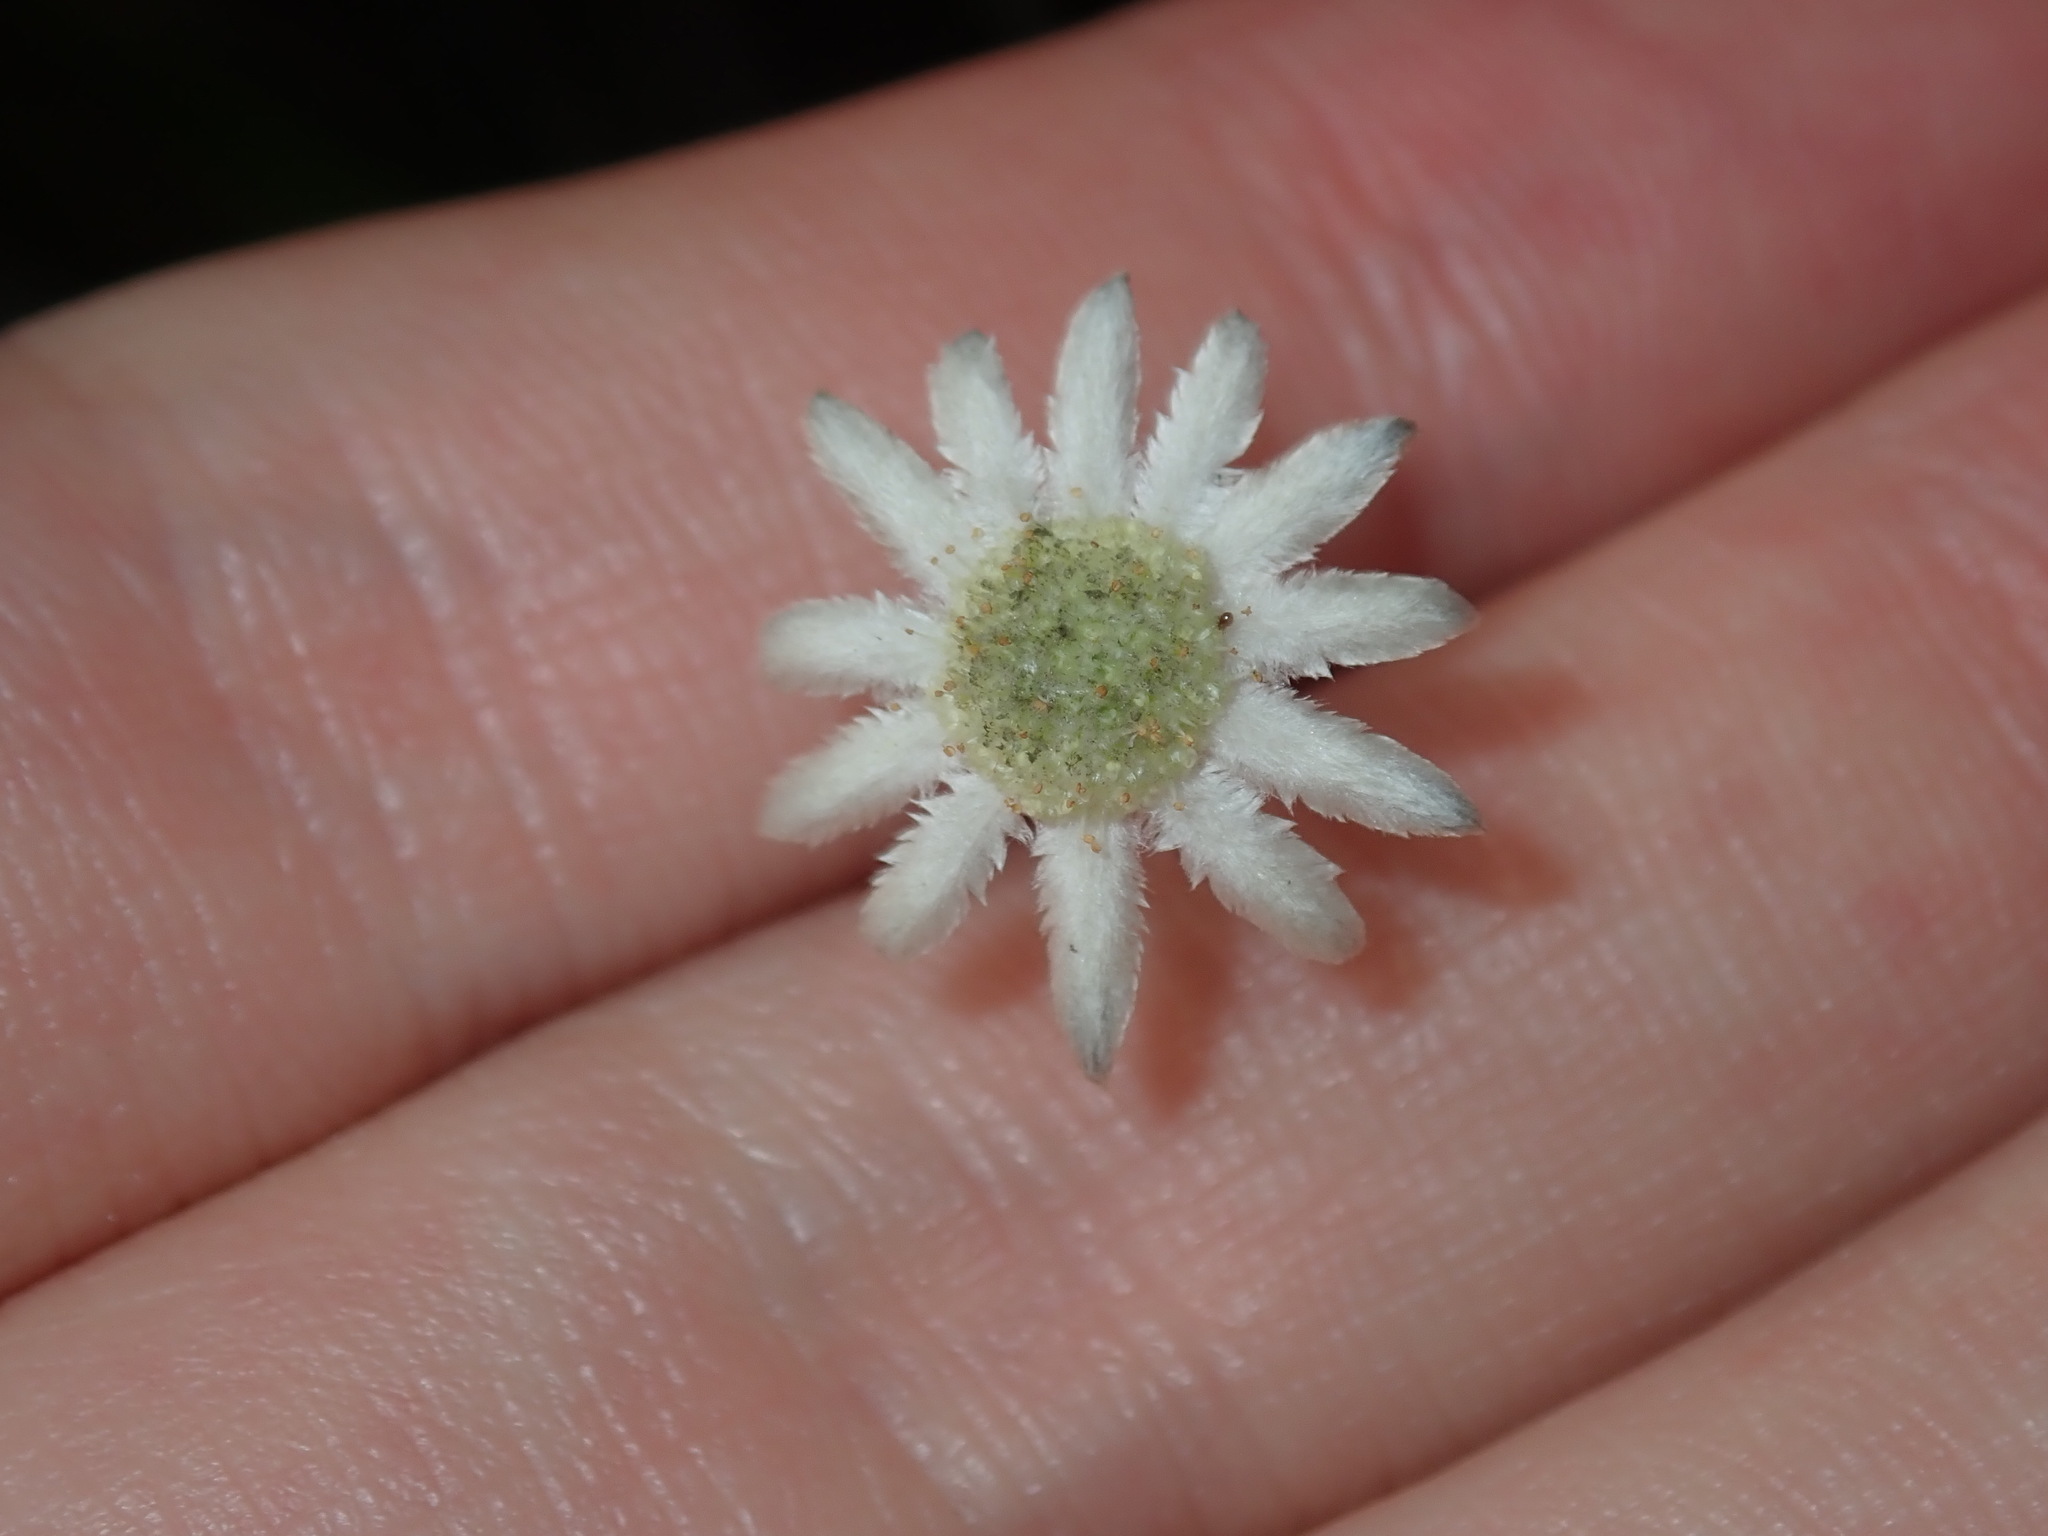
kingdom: Plantae
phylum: Tracheophyta
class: Magnoliopsida
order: Apiales
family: Apiaceae
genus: Actinotus
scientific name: Actinotus minor
